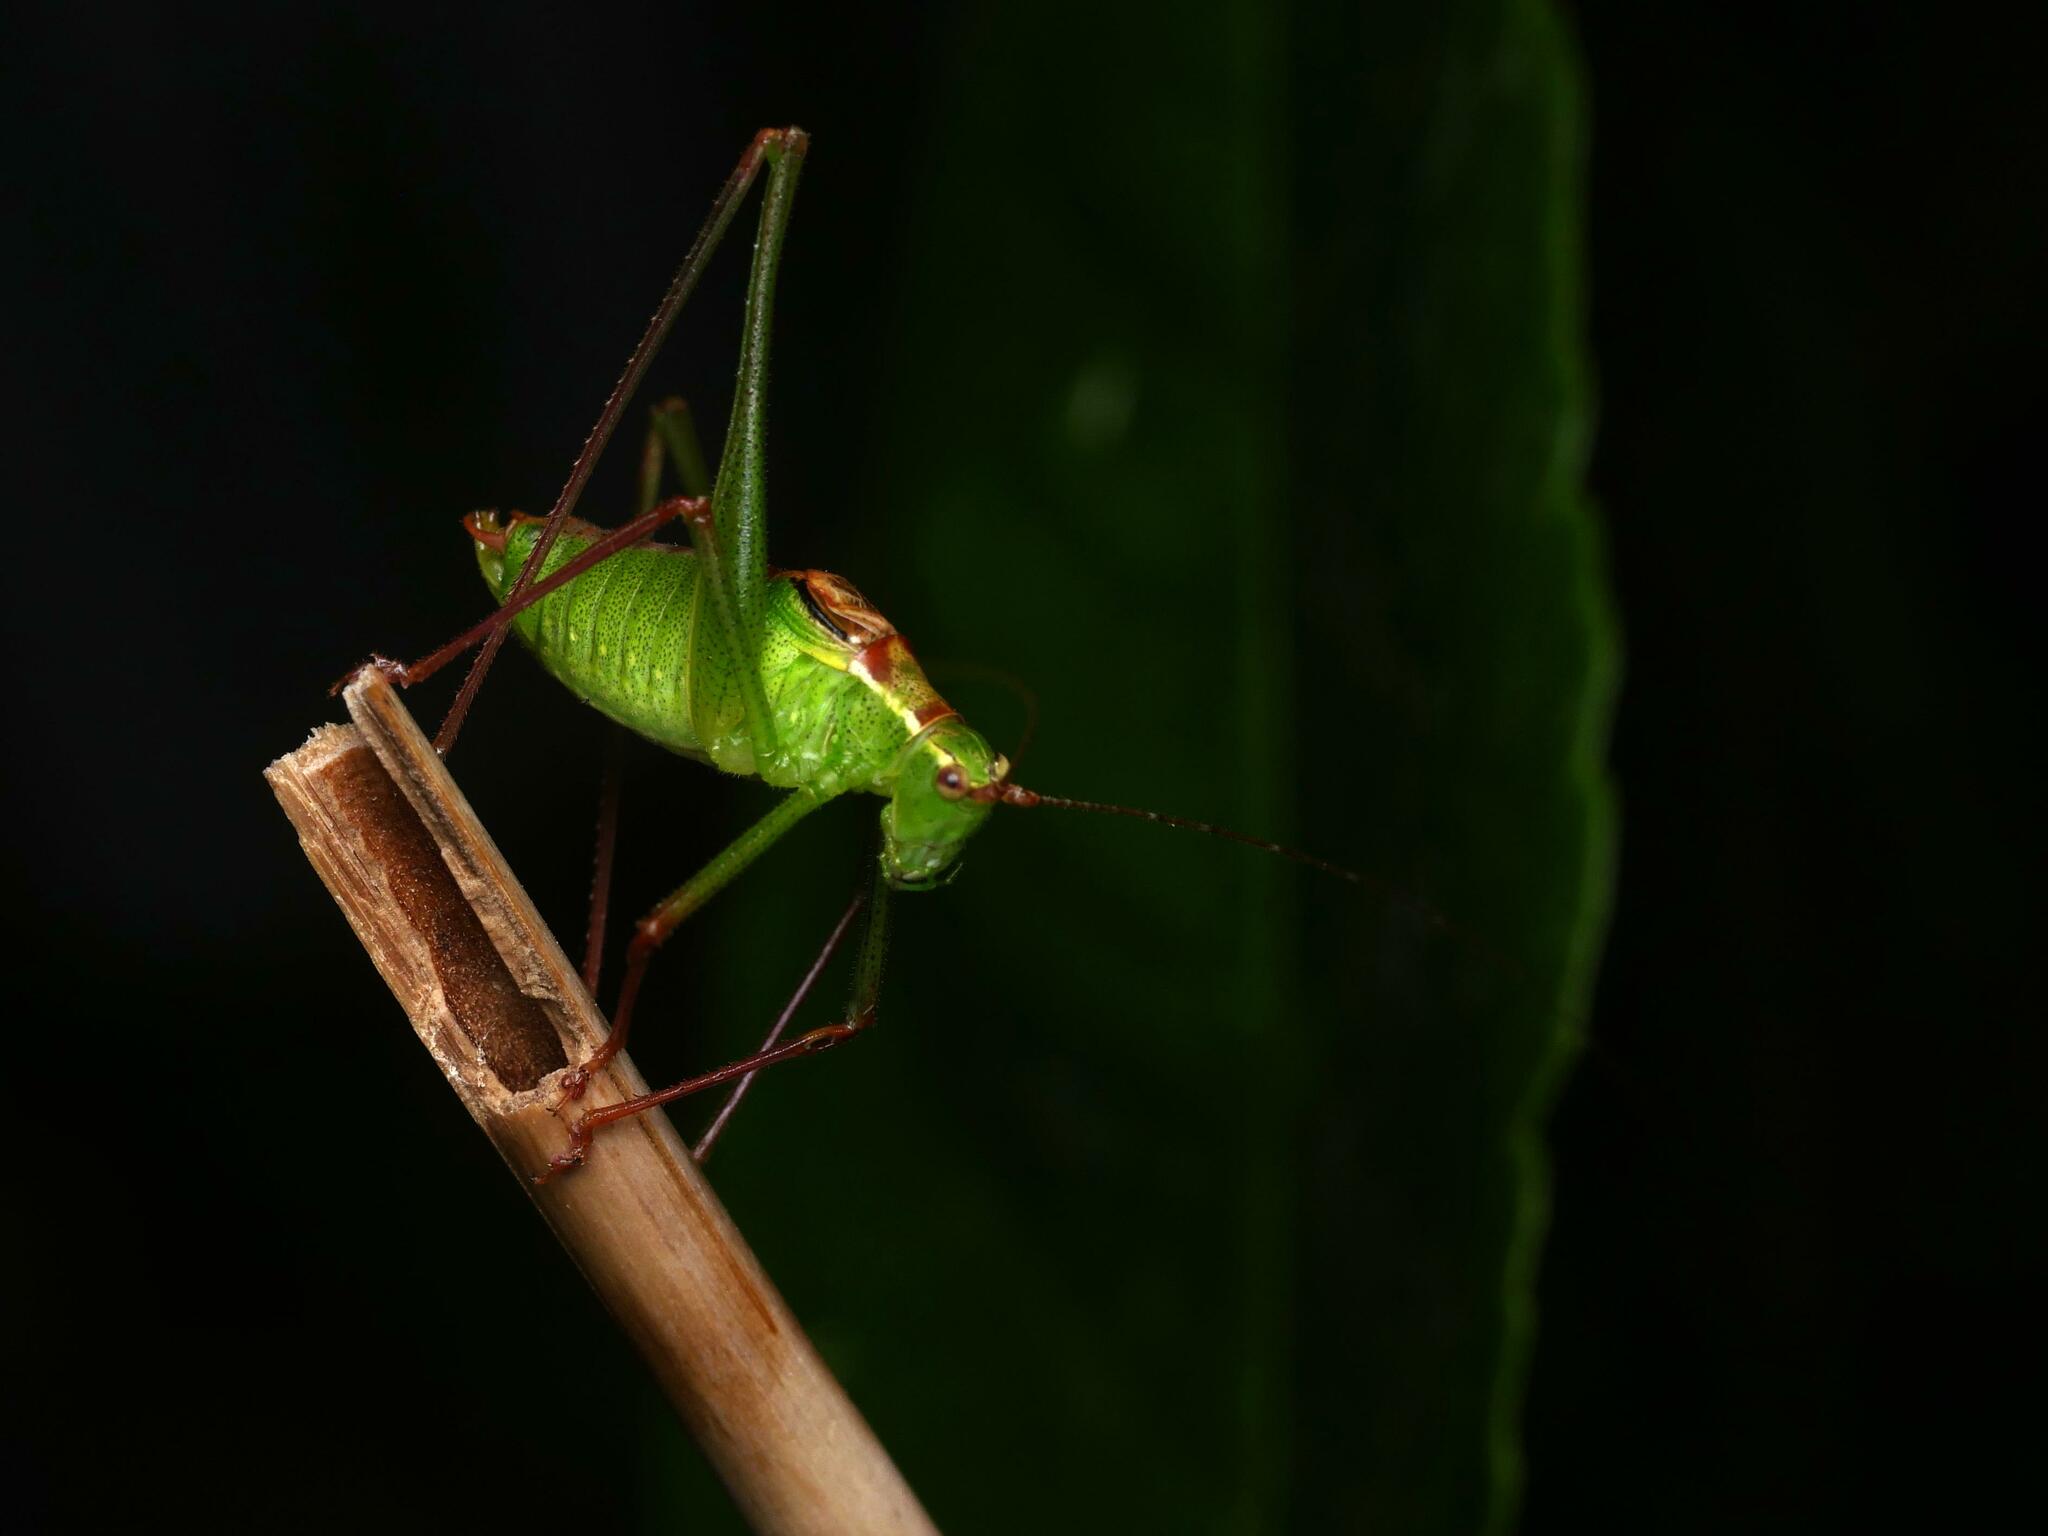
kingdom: Animalia
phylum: Arthropoda
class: Insecta
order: Orthoptera
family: Tettigoniidae
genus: Leptophyes
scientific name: Leptophyes punctatissima
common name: Speckled bush-cricket
